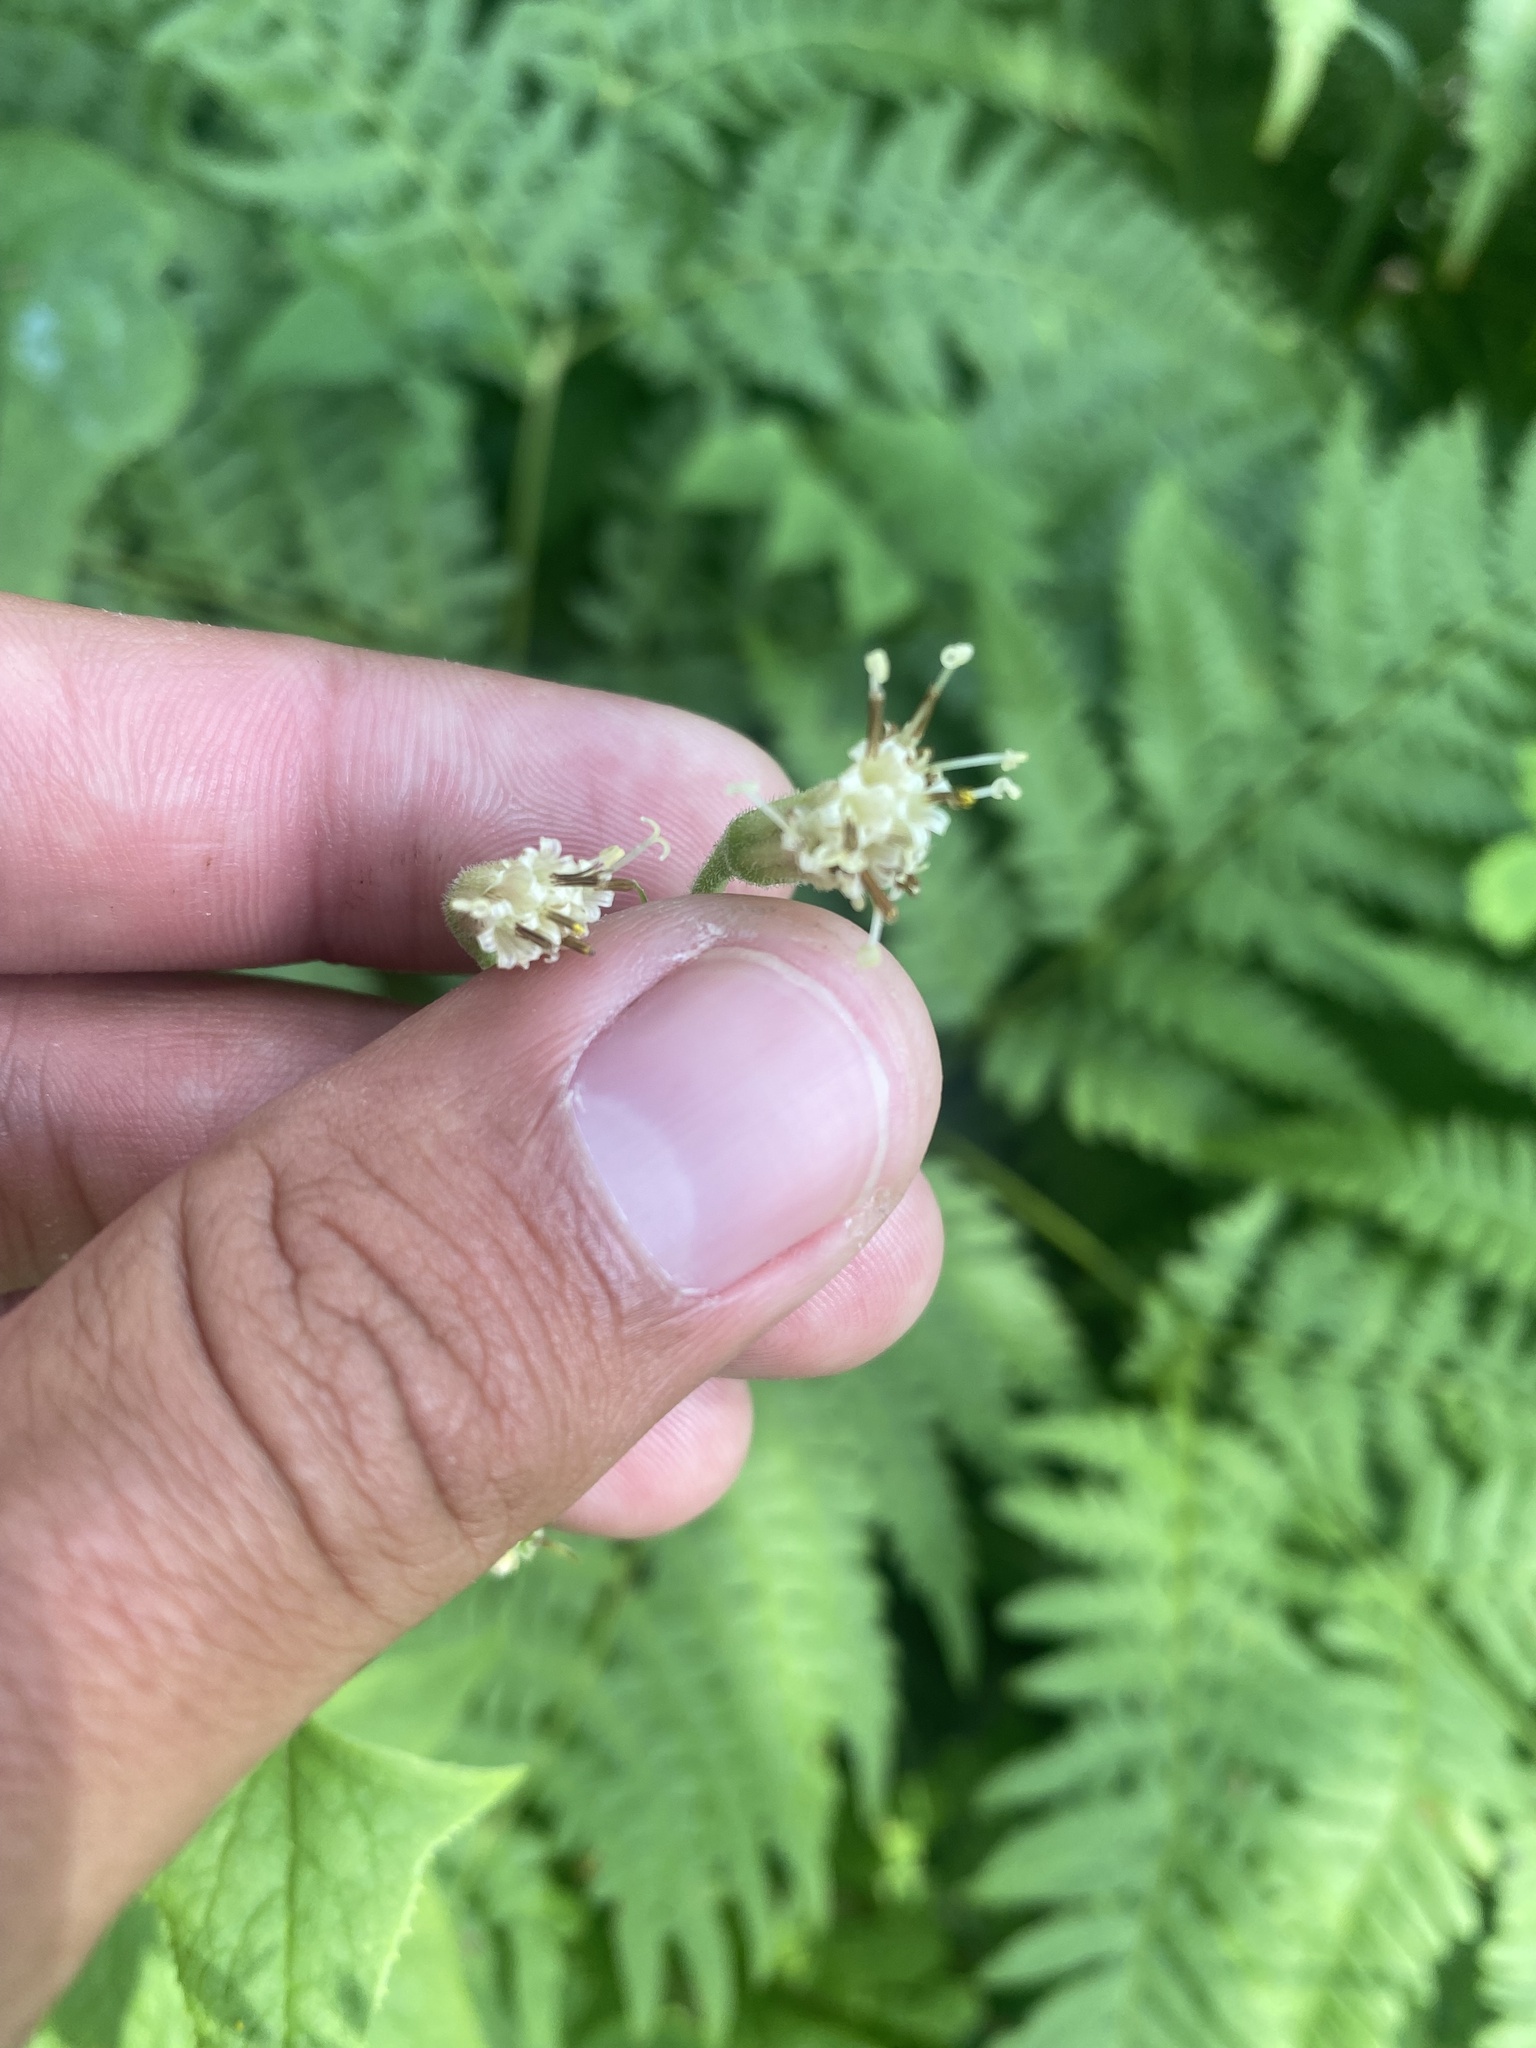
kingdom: Plantae
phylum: Tracheophyta
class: Magnoliopsida
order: Asterales
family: Asteraceae
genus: Parasenecio
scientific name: Parasenecio hastatus
